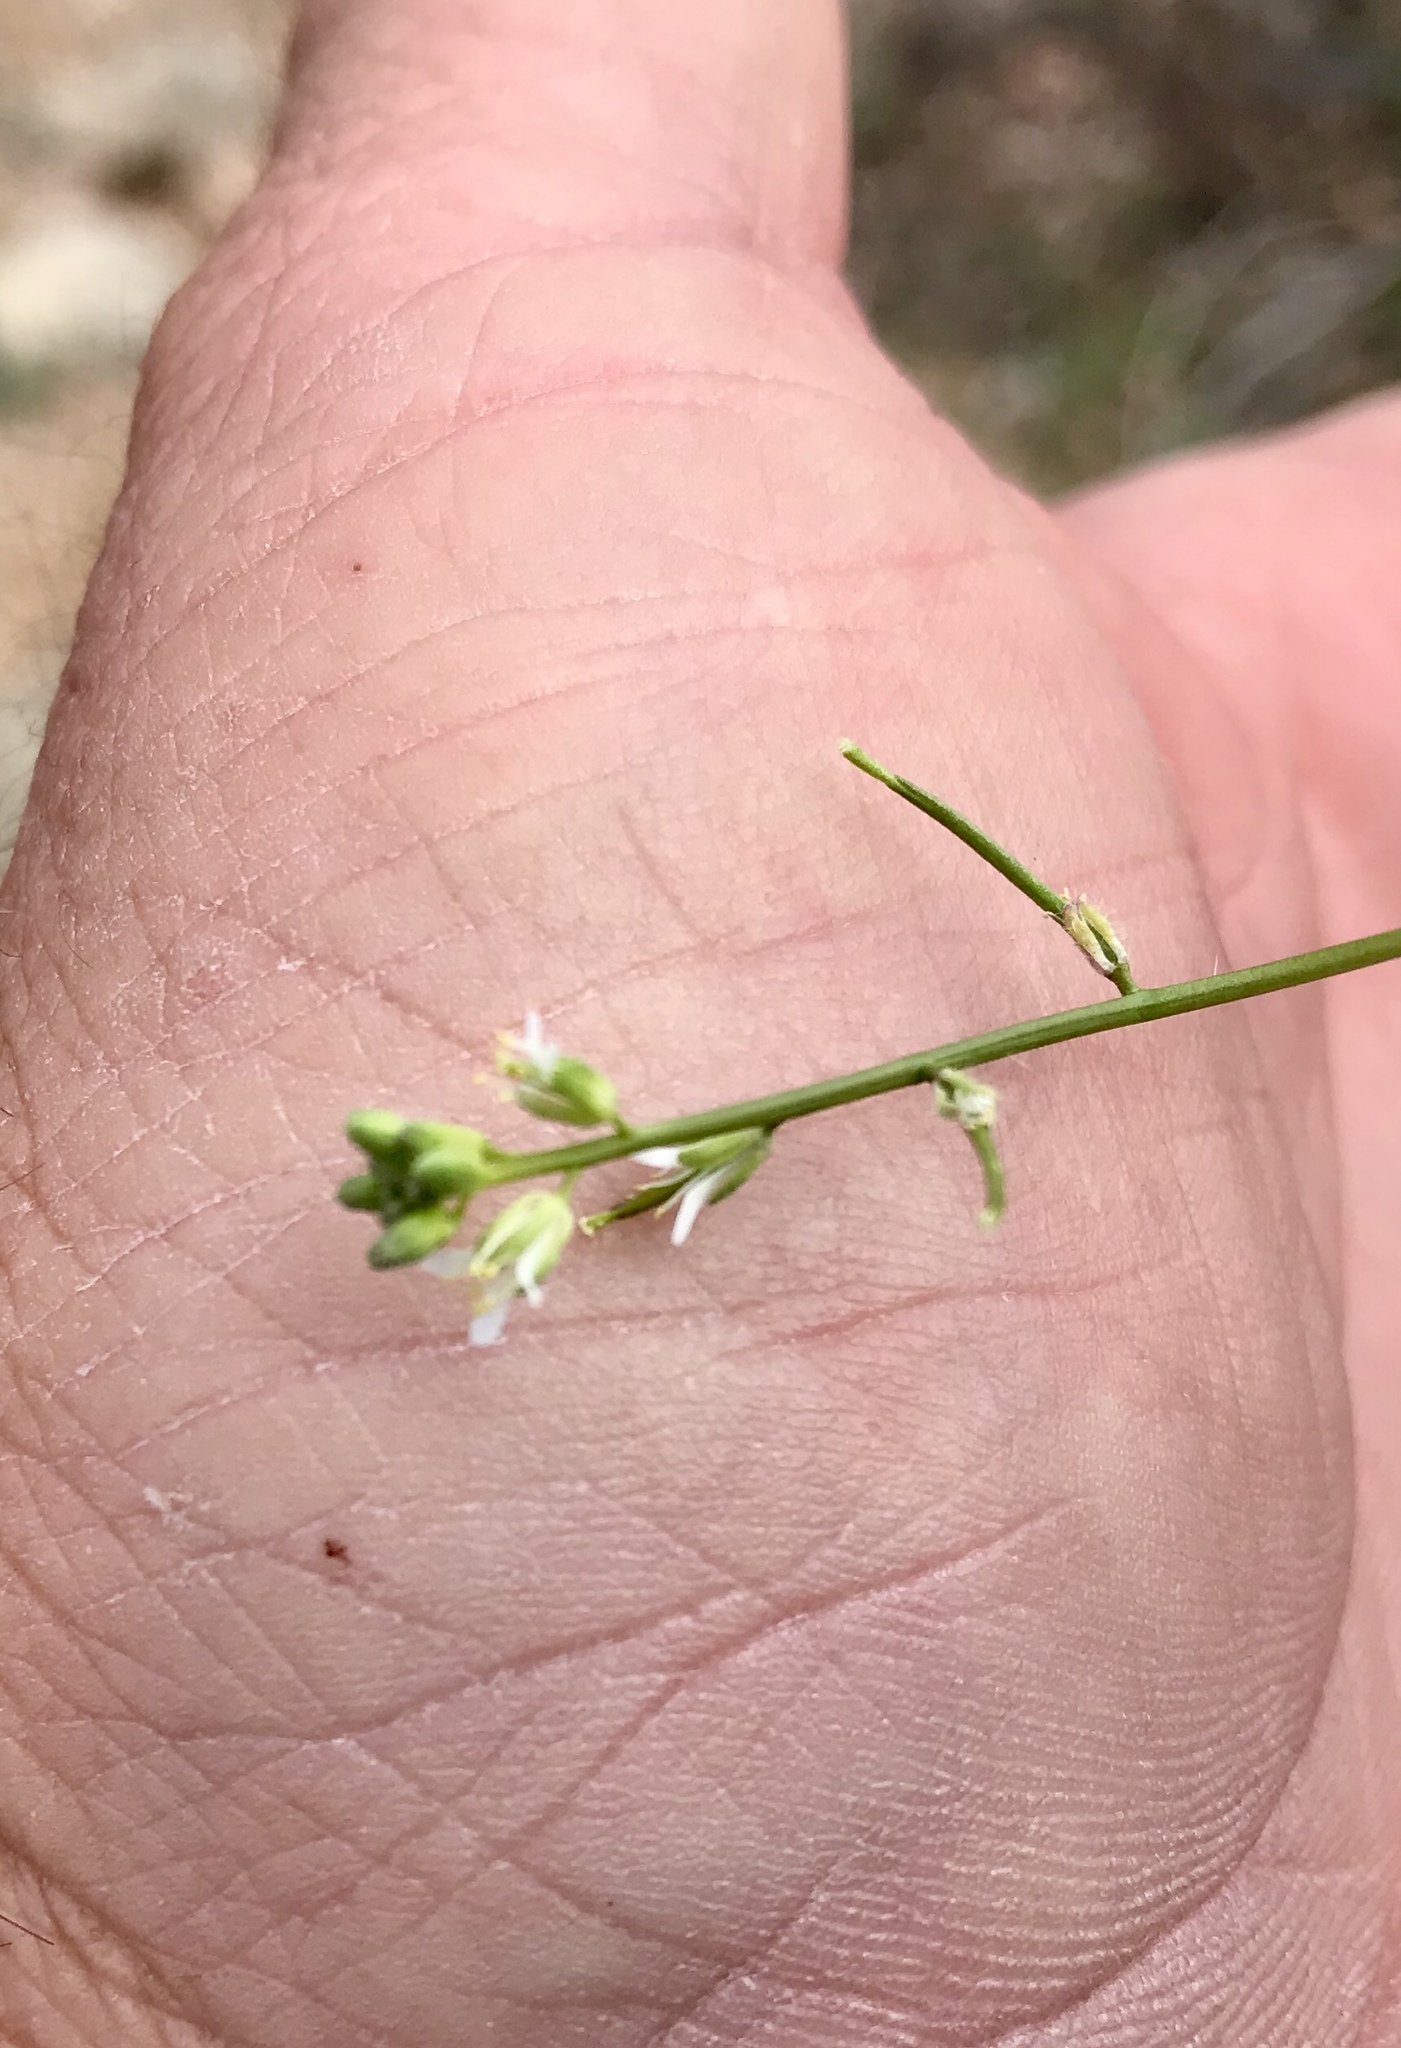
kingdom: Plantae
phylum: Tracheophyta
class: Magnoliopsida
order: Brassicales
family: Brassicaceae
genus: Streptanthus
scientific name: Streptanthus lasiophyllus
